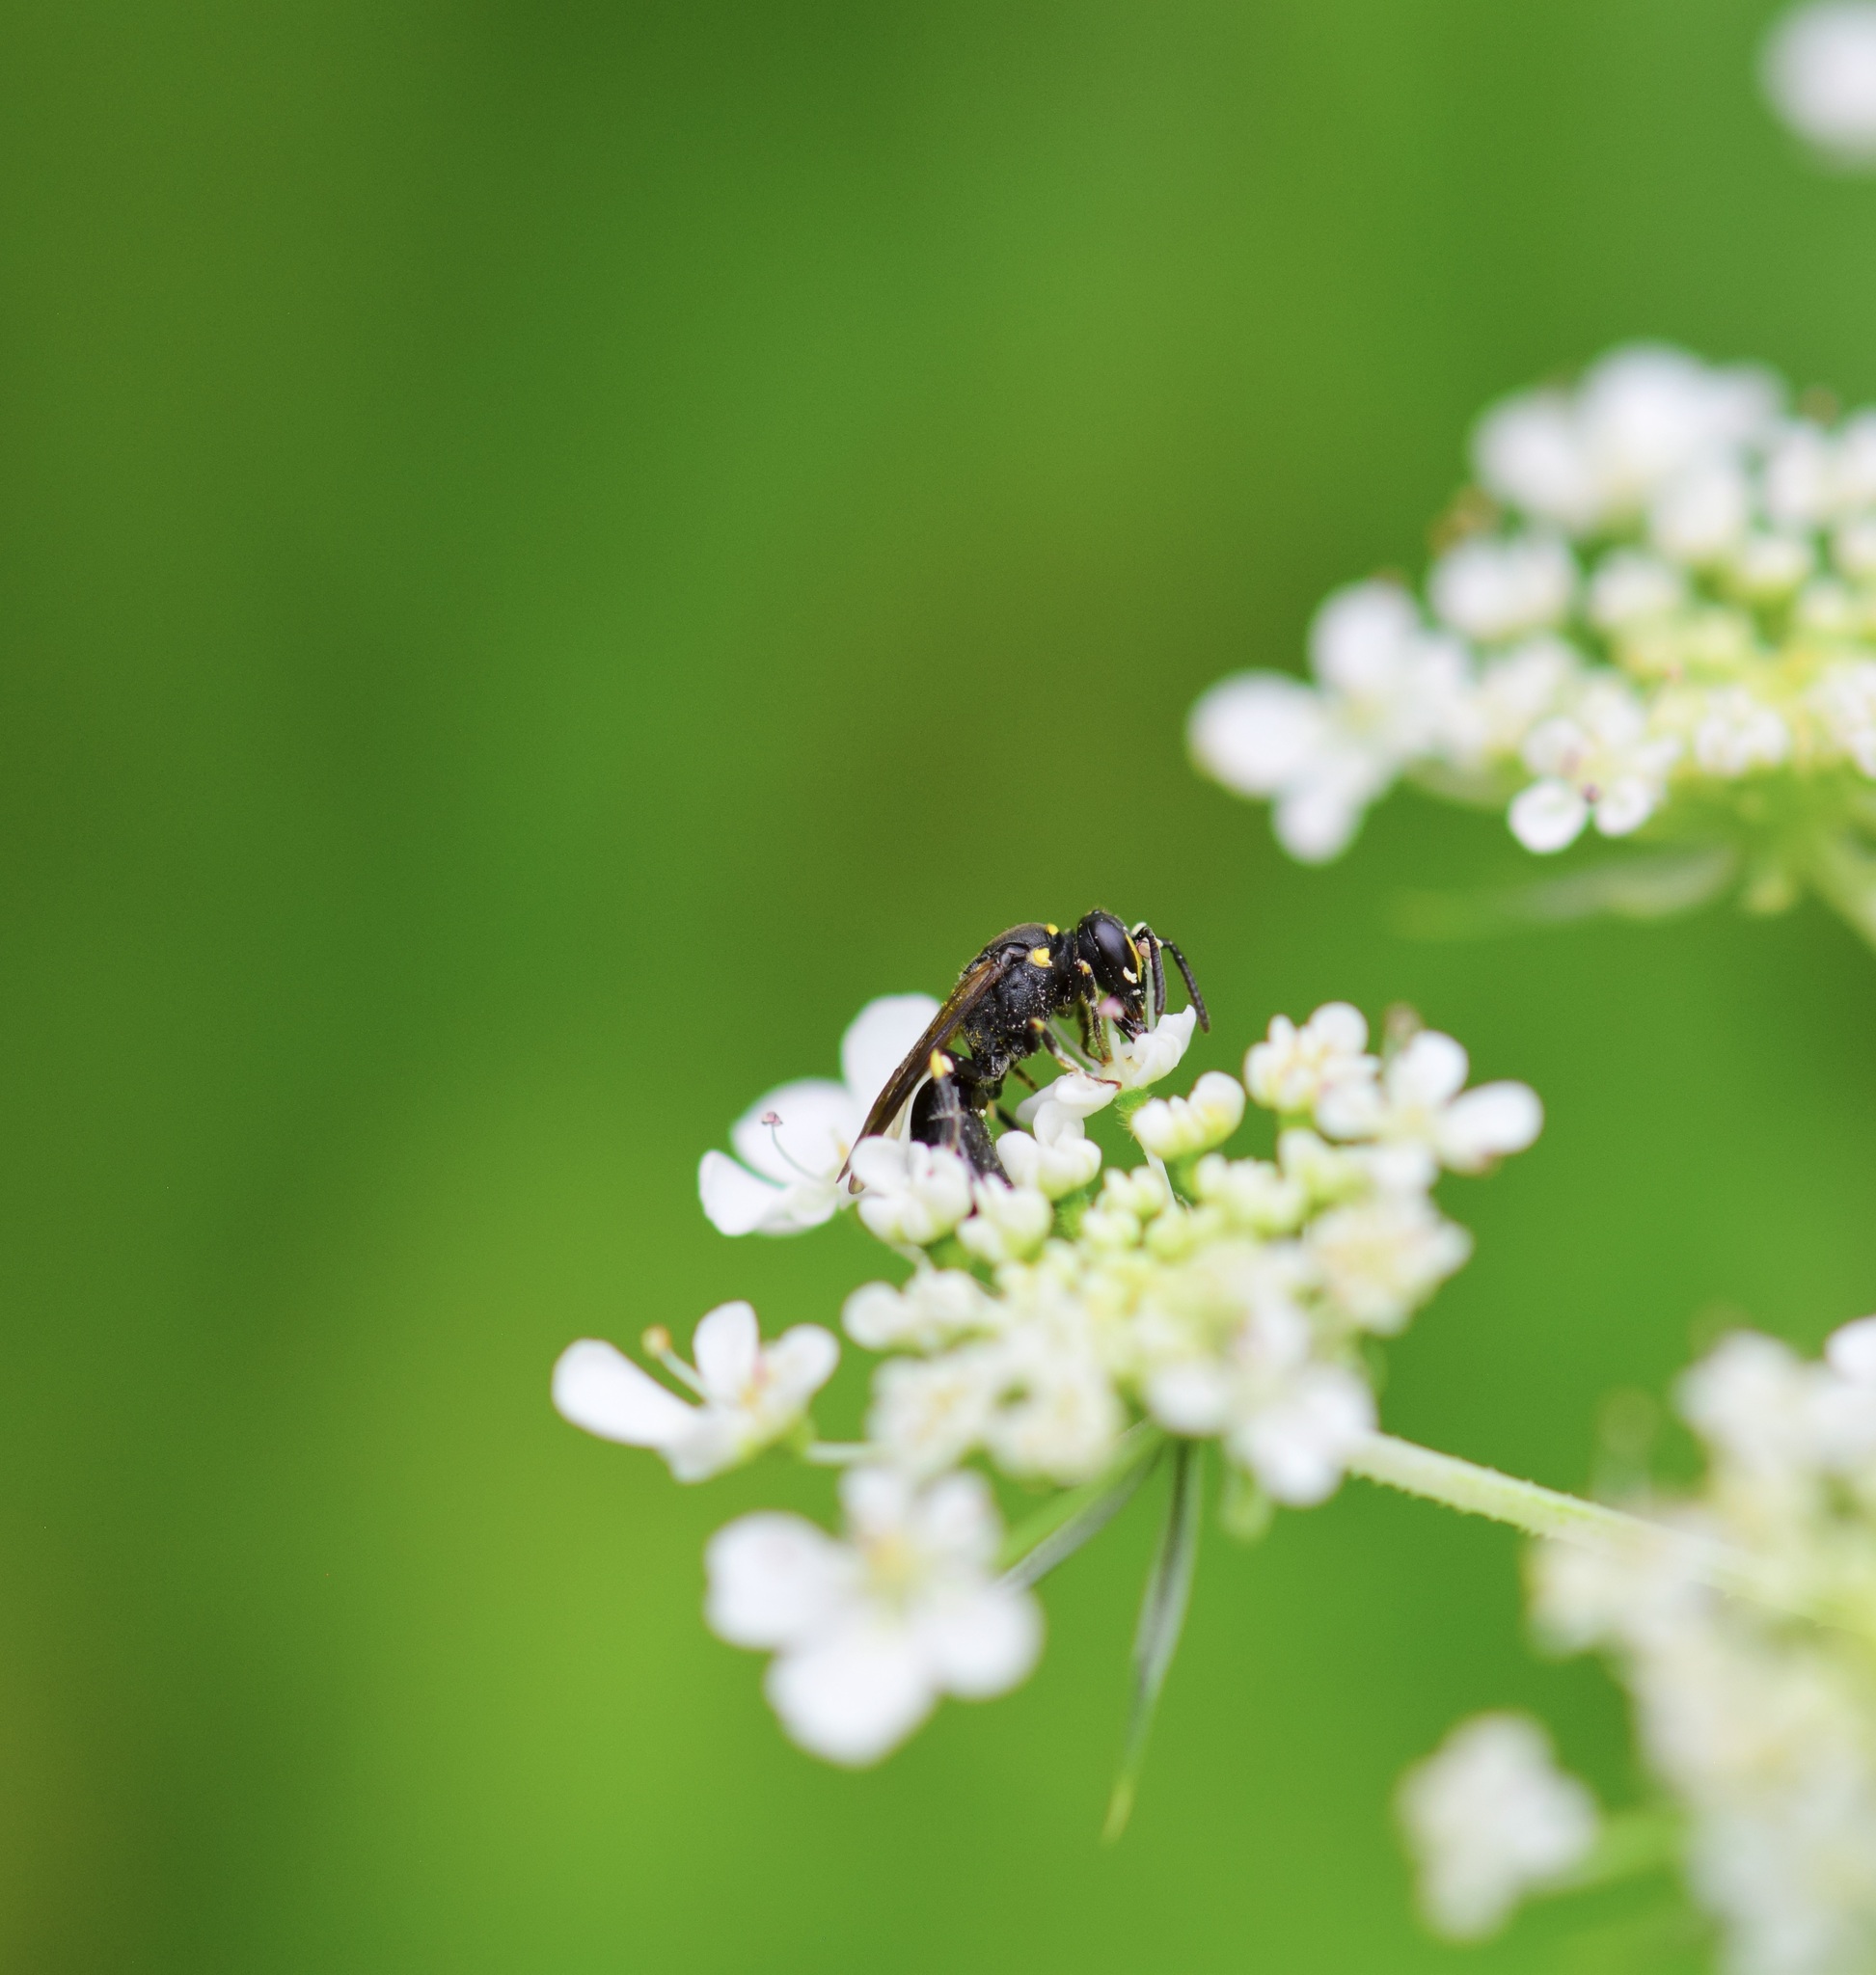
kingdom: Animalia
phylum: Arthropoda
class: Insecta
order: Hymenoptera
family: Colletidae
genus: Hylaeus
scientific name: Hylaeus modestus
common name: Yellow-faced bee
